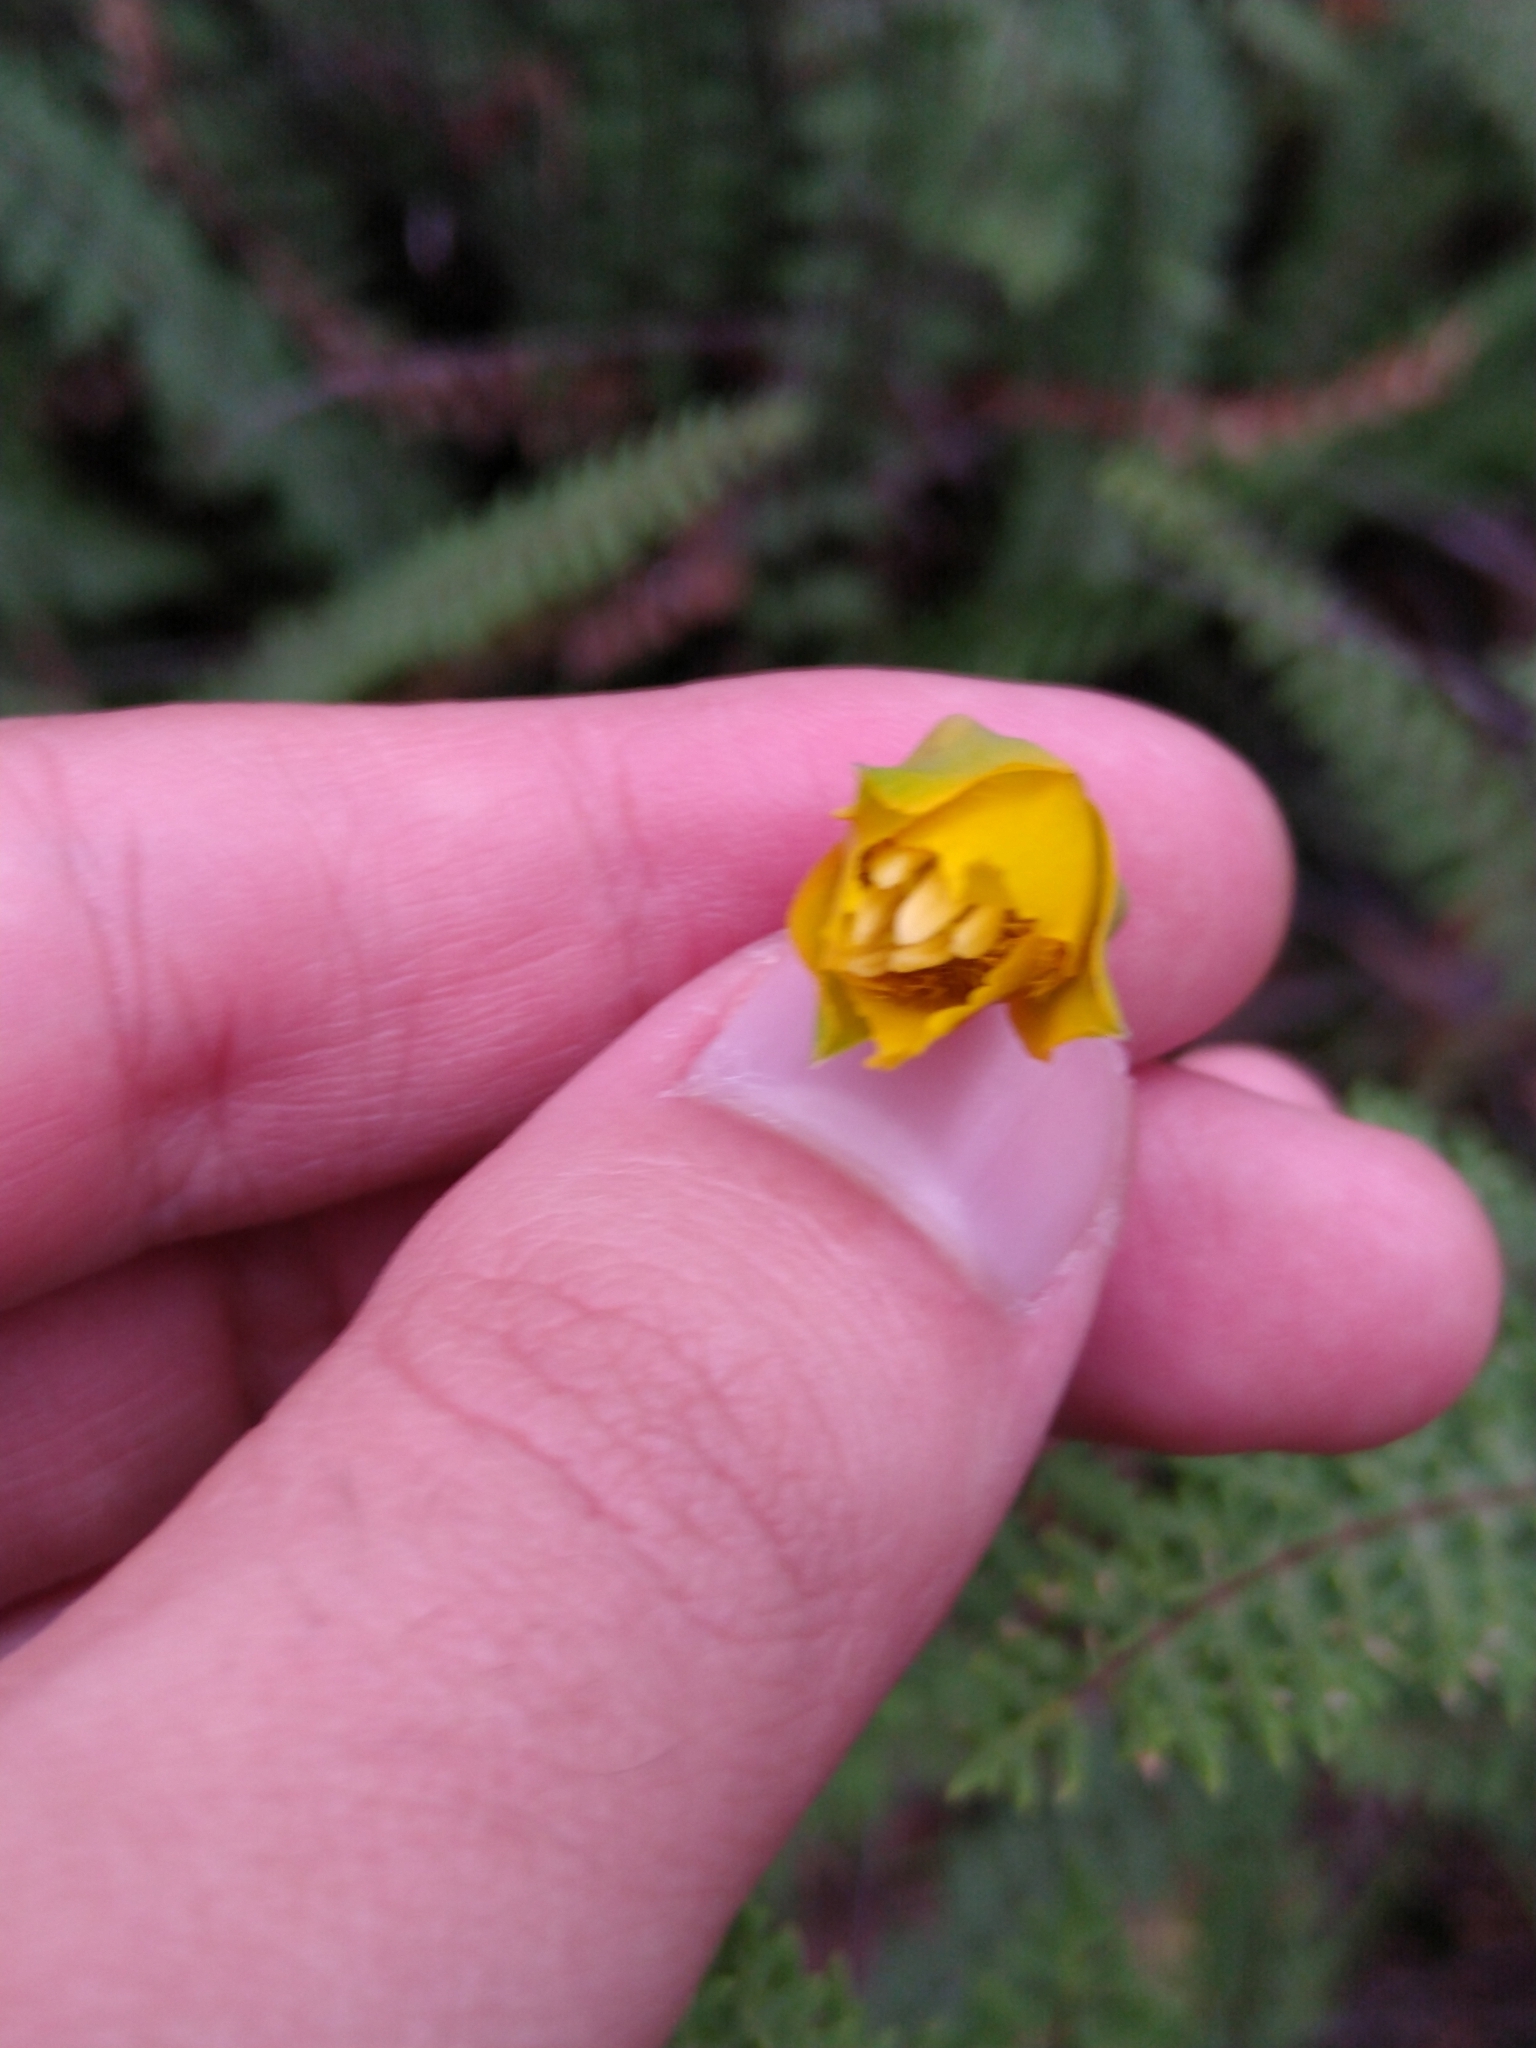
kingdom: Plantae
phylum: Tracheophyta
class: Liliopsida
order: Liliales
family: Liliaceae
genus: Calochortus
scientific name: Calochortus barbatus
